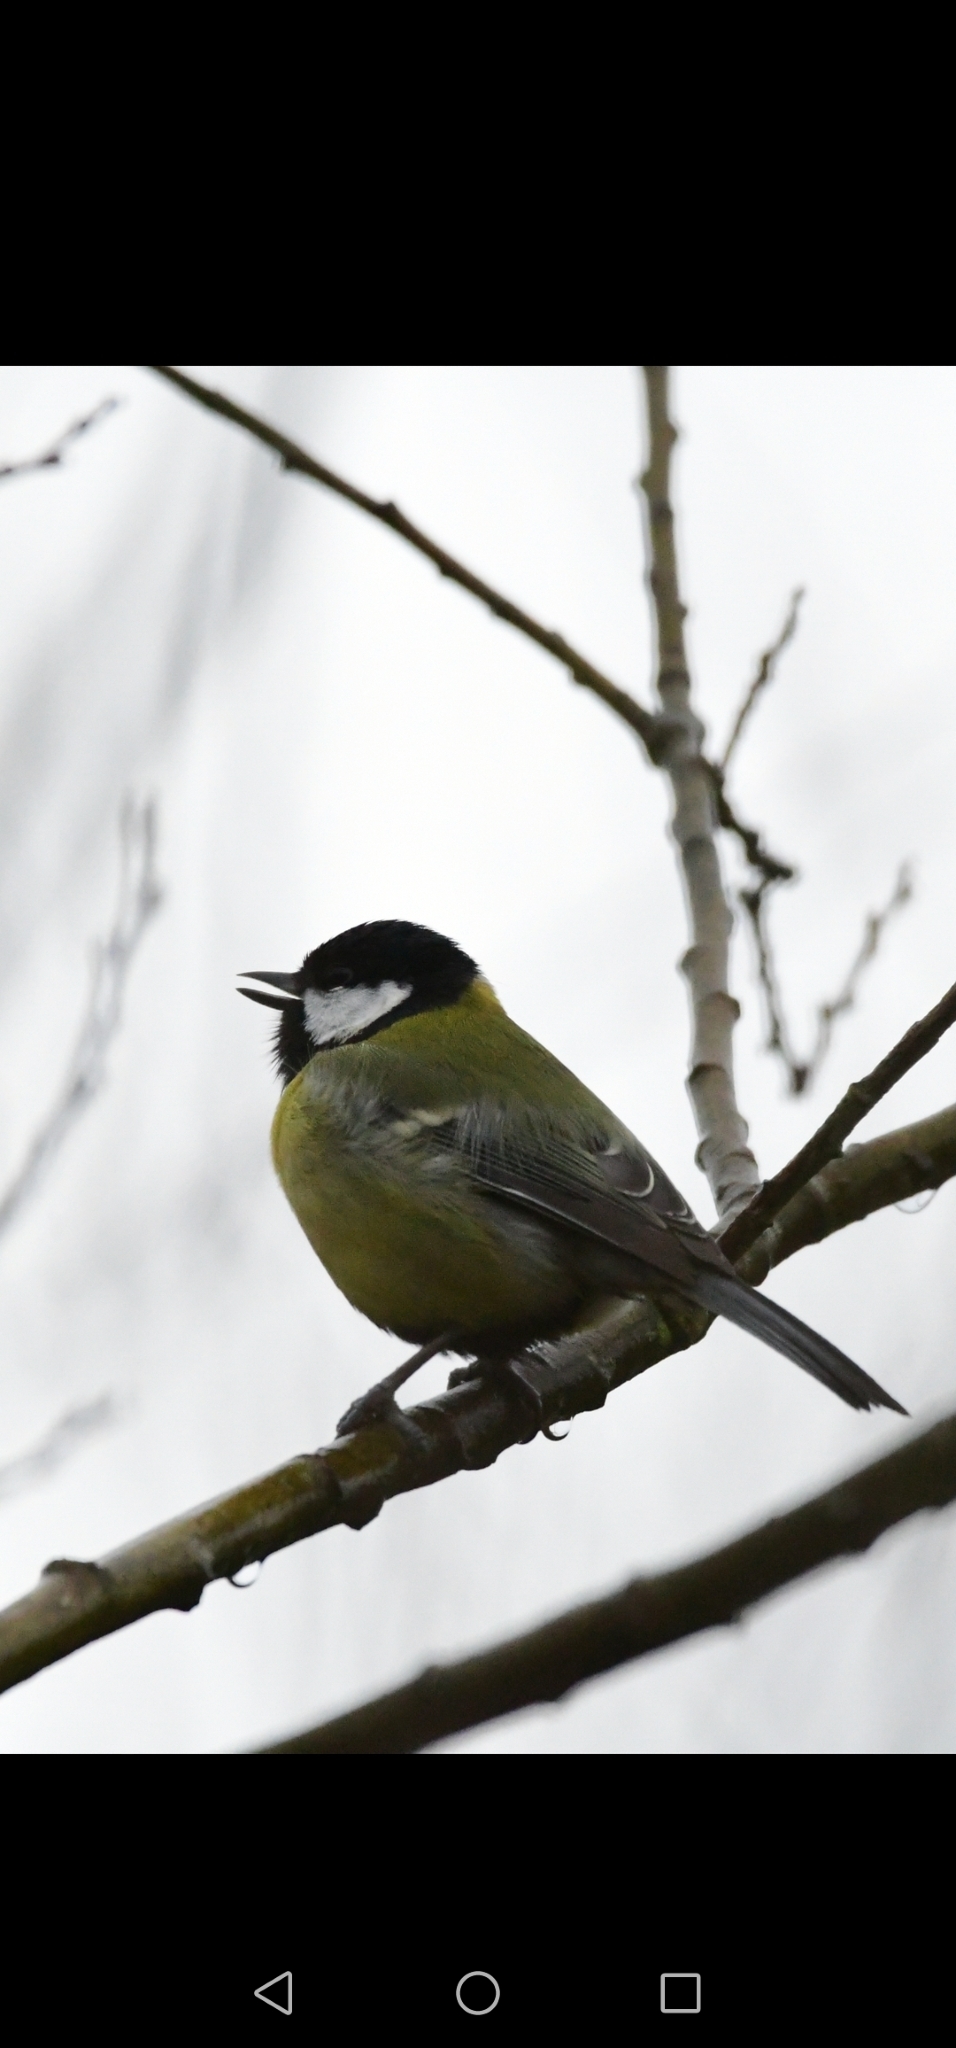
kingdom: Animalia
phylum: Chordata
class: Aves
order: Passeriformes
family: Paridae
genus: Parus
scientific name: Parus major
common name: Great tit
